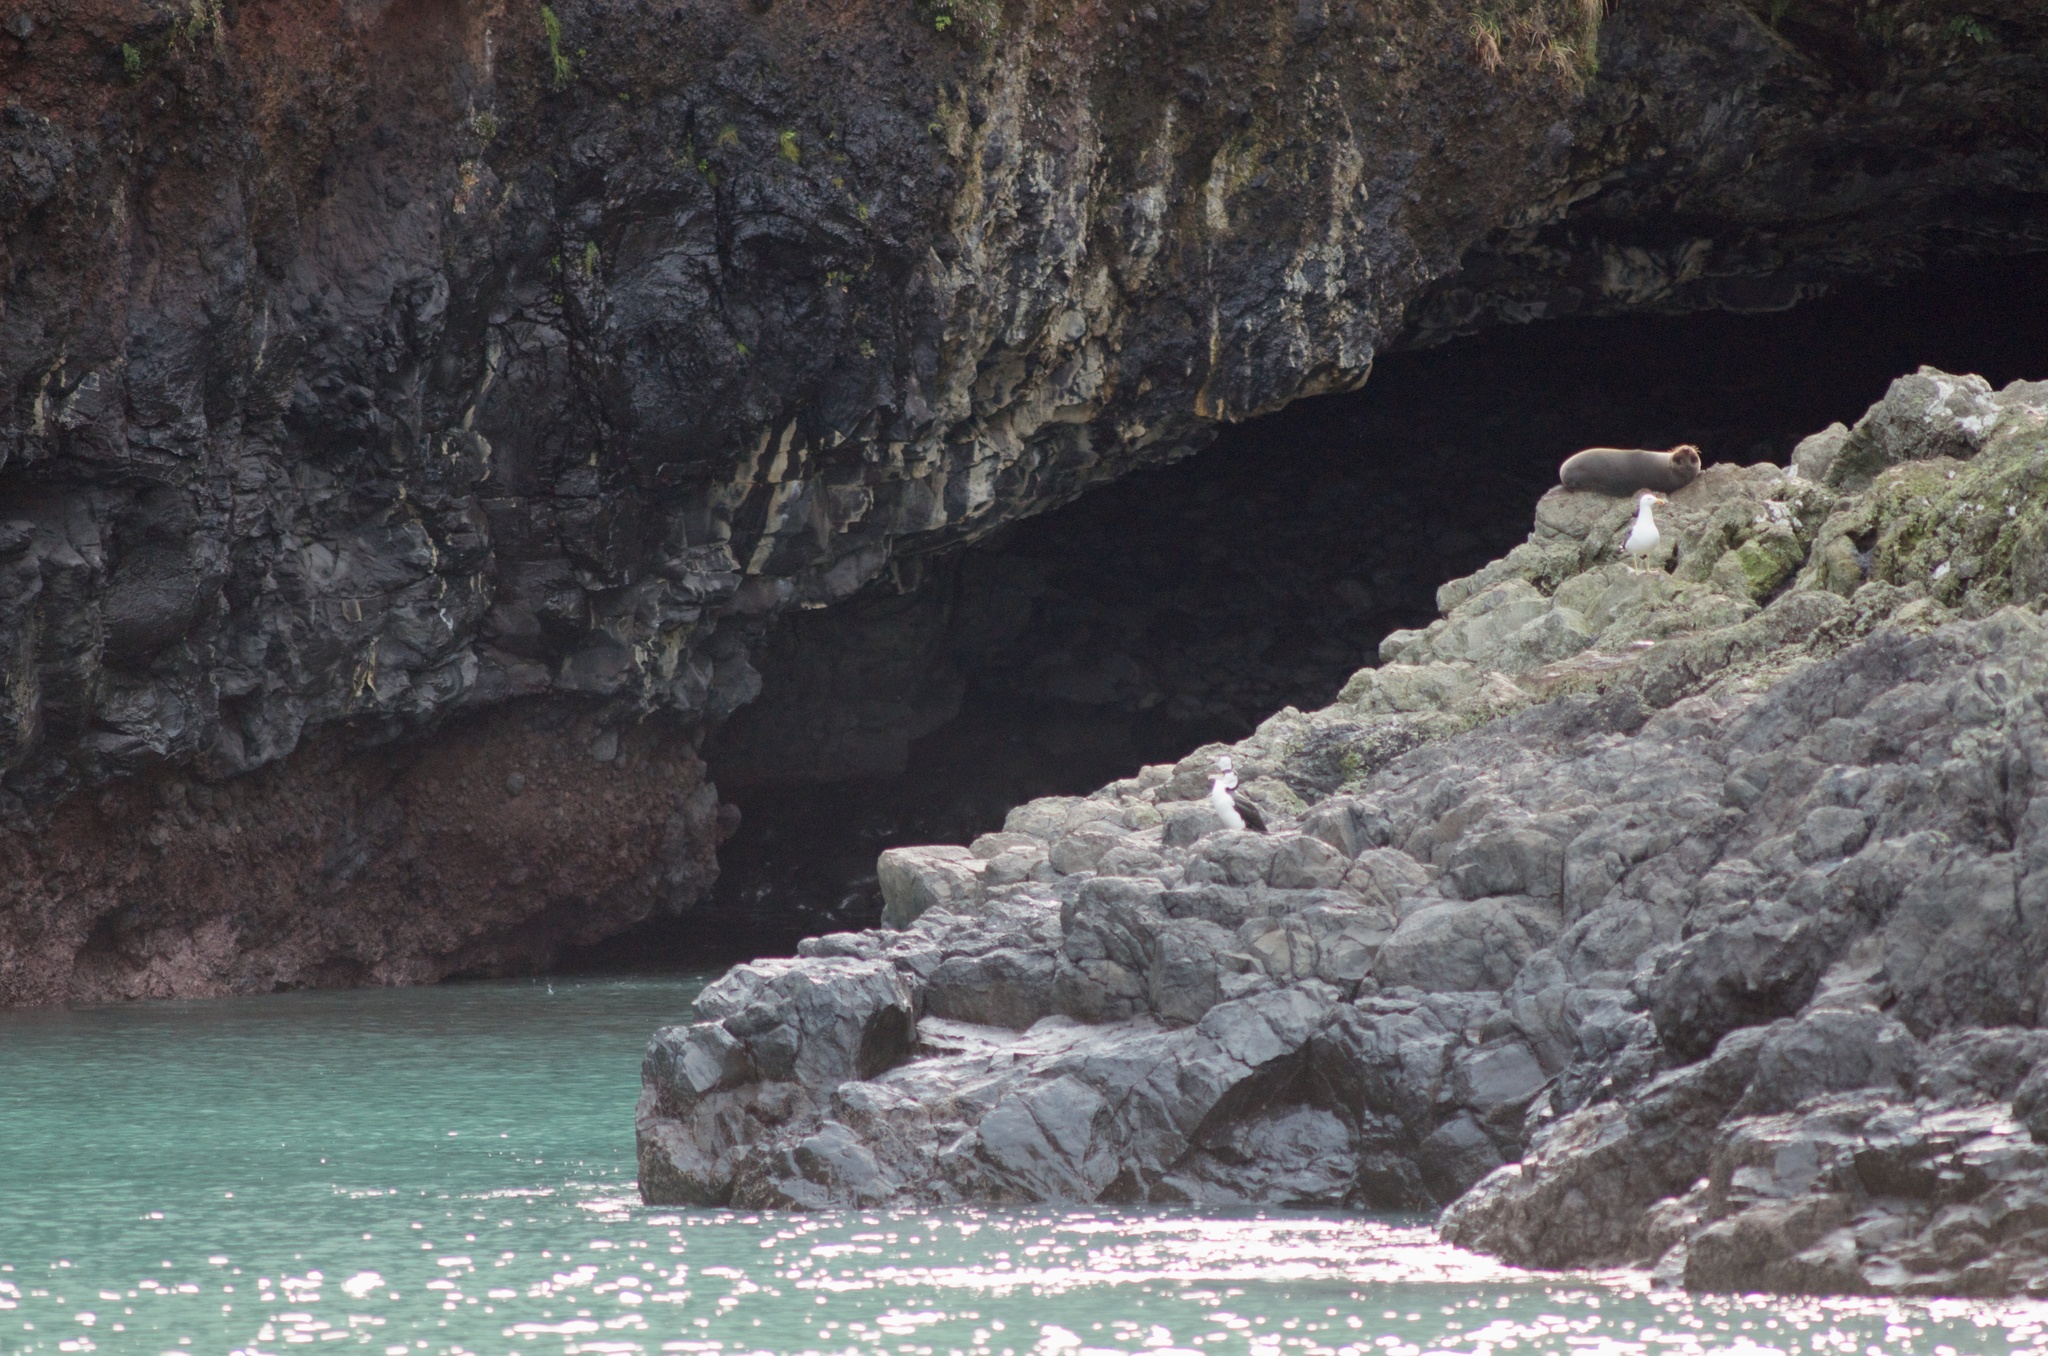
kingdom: Animalia
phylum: Chordata
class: Aves
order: Suliformes
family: Phalacrocoracidae
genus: Phalacrocorax
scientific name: Phalacrocorax varius
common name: Pied cormorant
